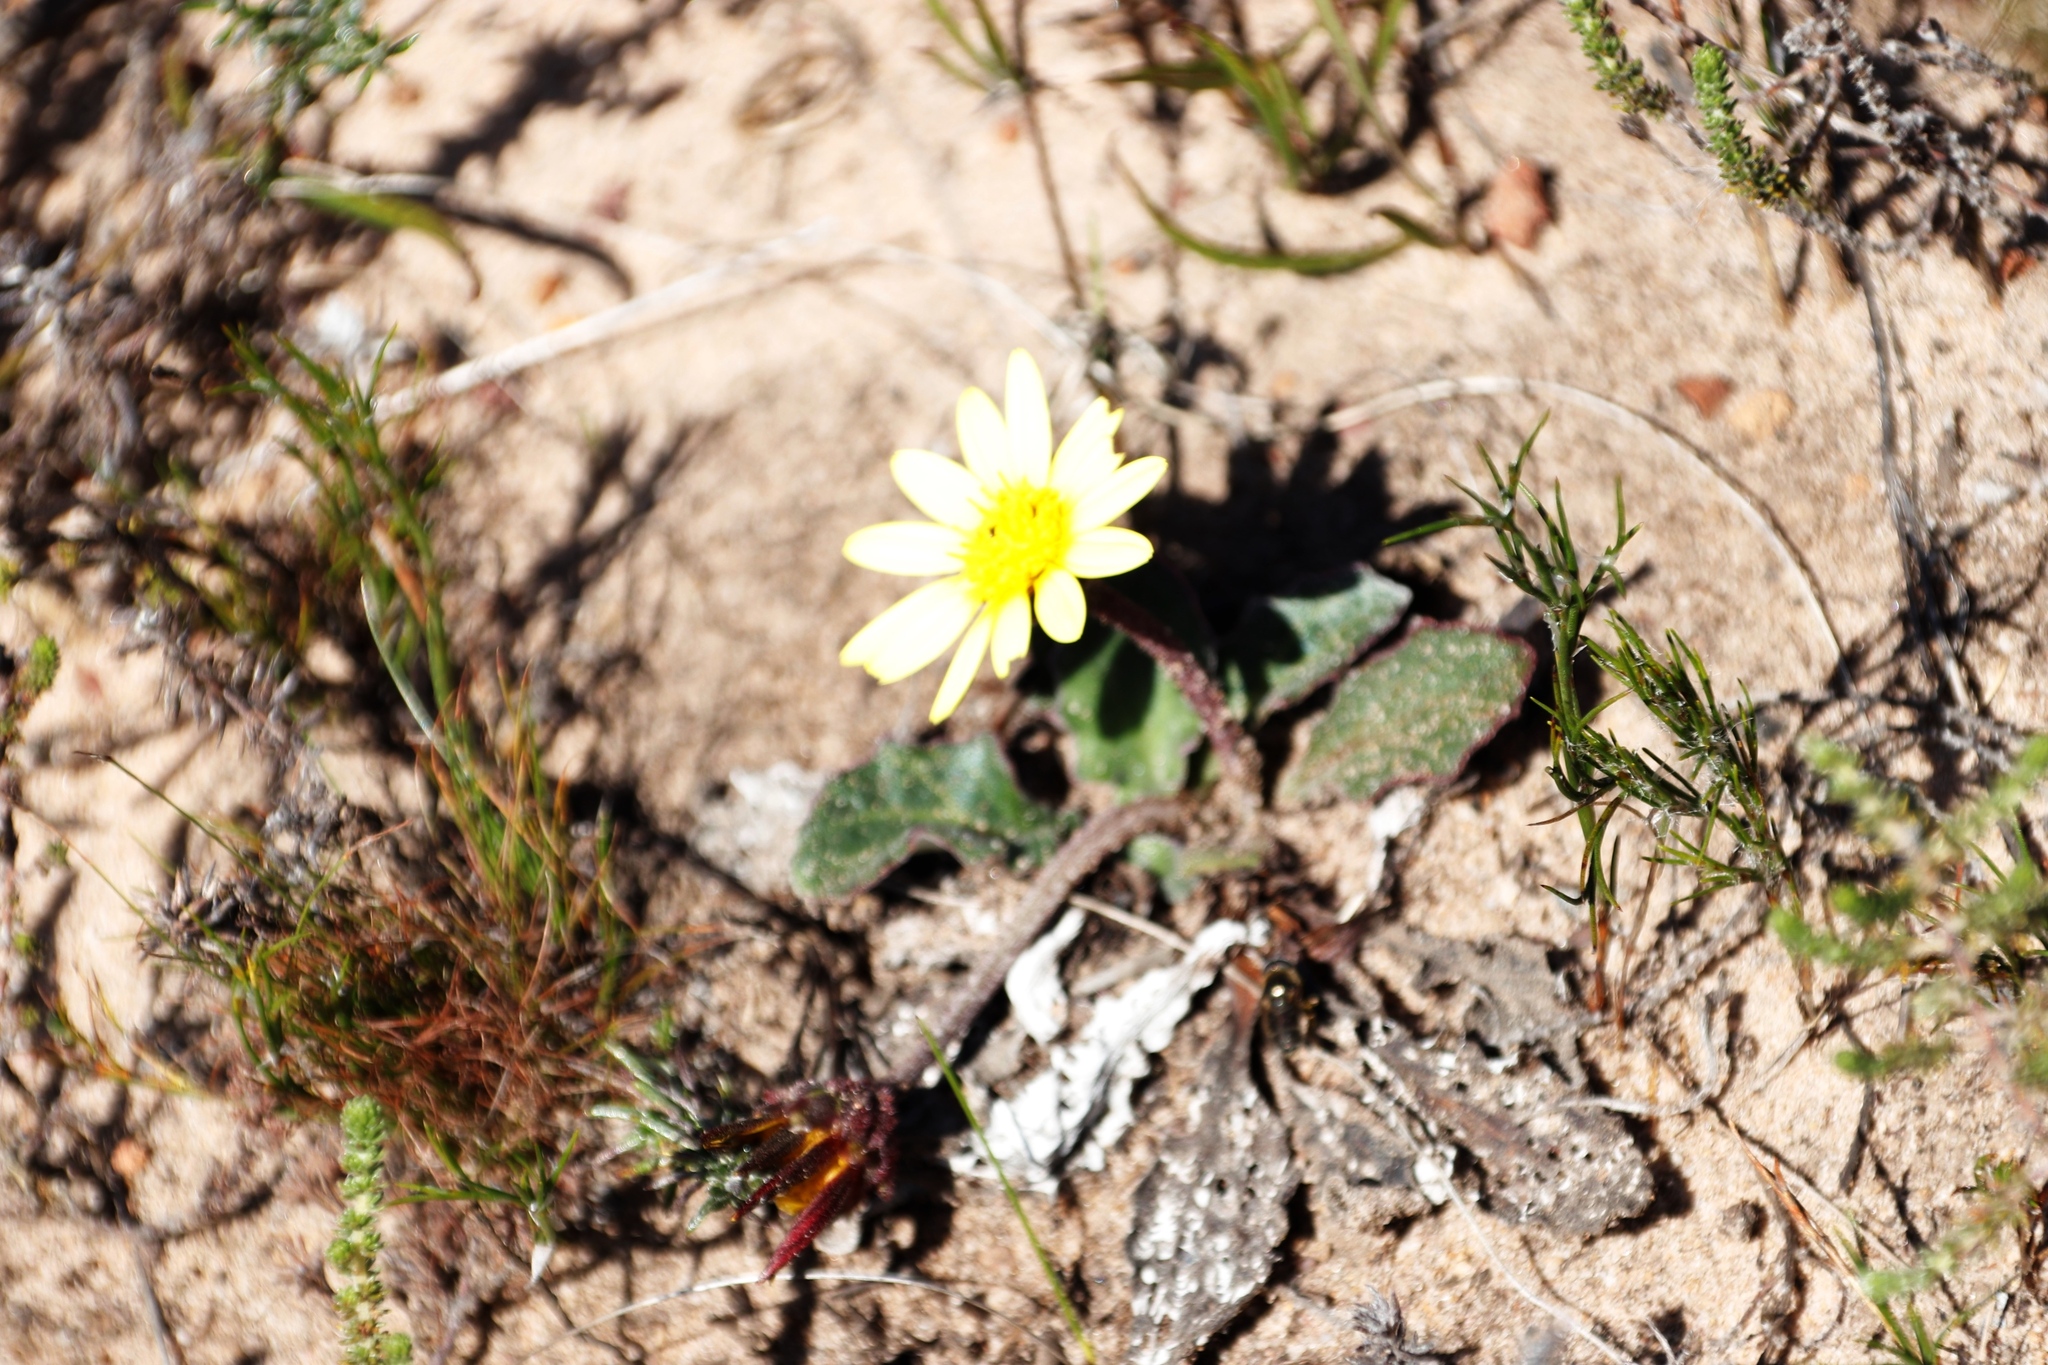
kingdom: Plantae
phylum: Tracheophyta
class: Magnoliopsida
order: Asterales
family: Asteraceae
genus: Haplocarpha
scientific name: Haplocarpha lanata
